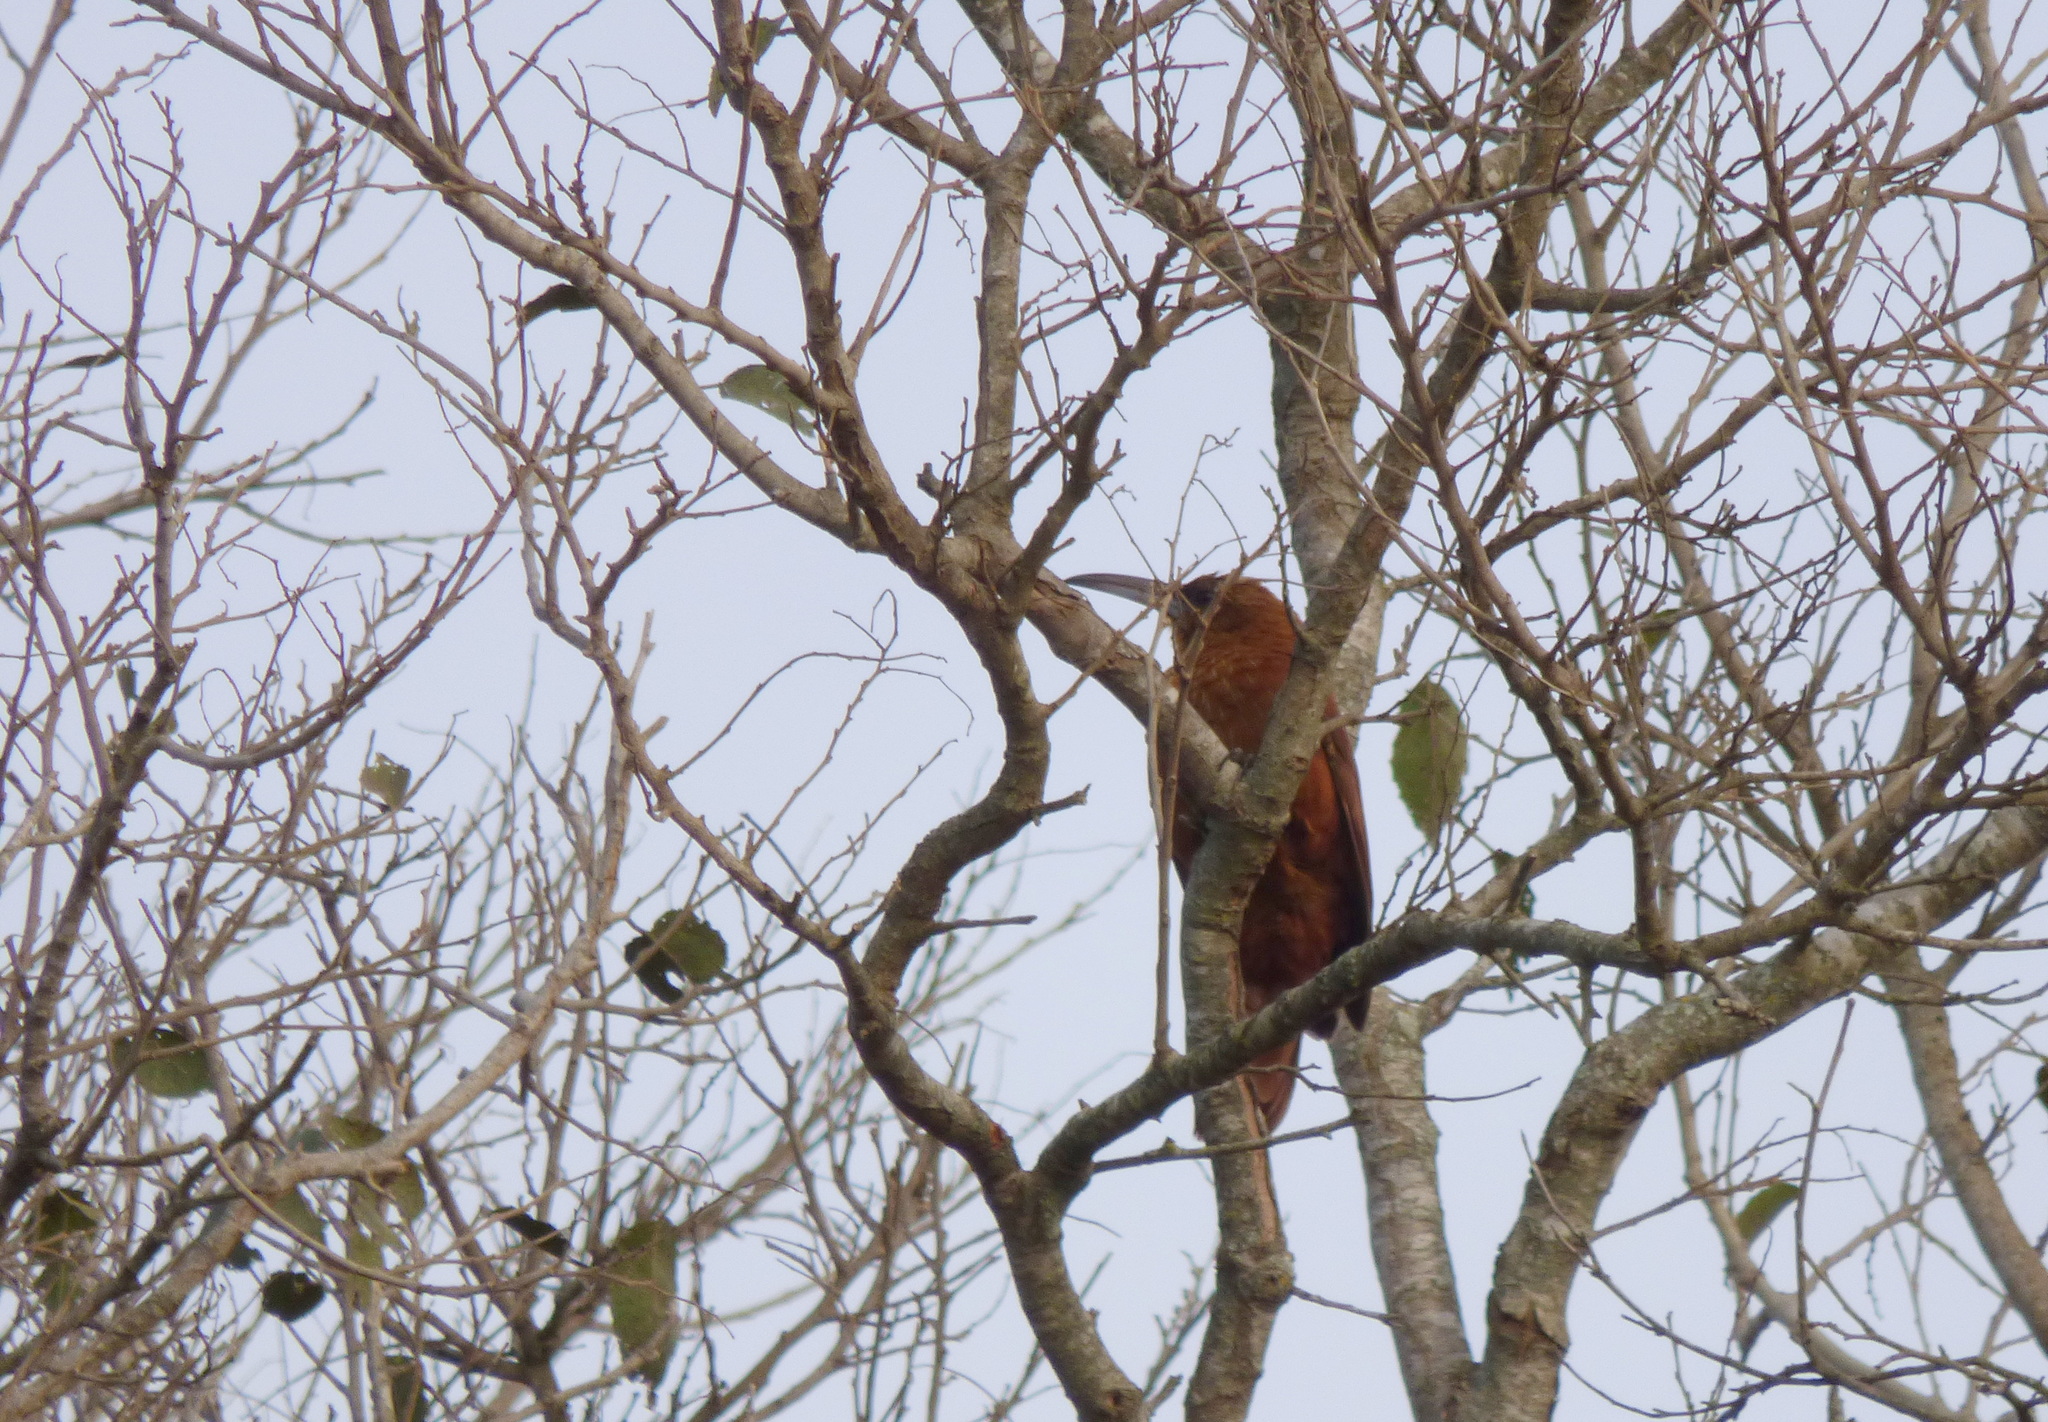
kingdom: Animalia
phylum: Chordata
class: Aves
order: Passeriformes
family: Furnariidae
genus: Xiphocolaptes
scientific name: Xiphocolaptes major
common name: Great rufous woodcreeper
